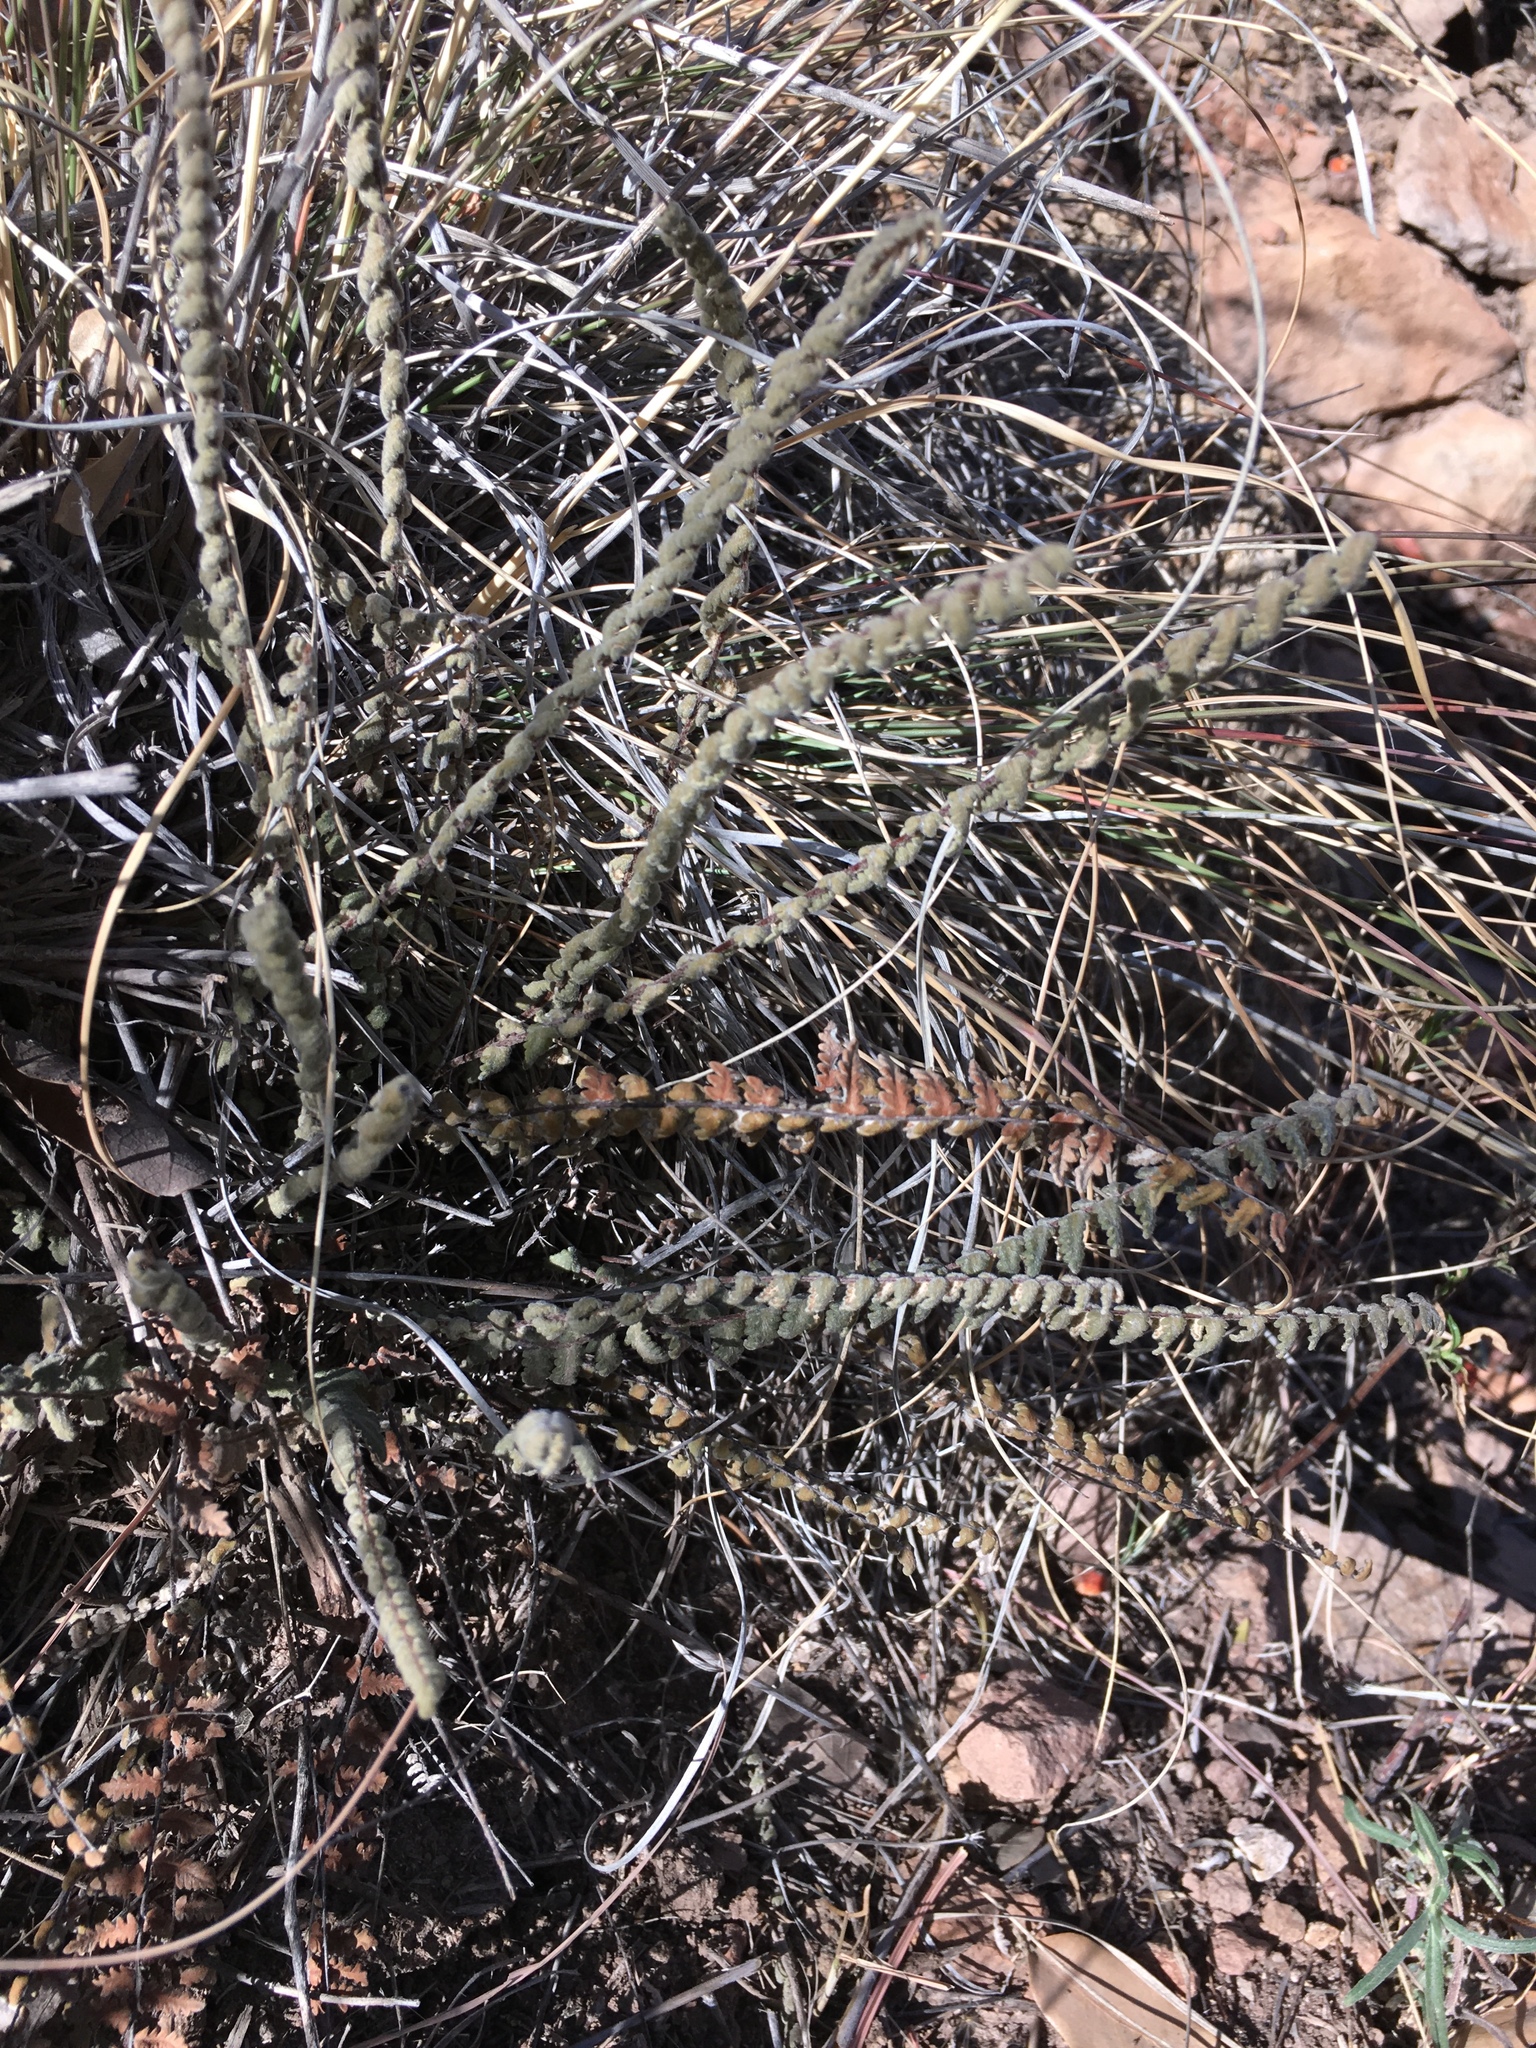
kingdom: Plantae
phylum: Tracheophyta
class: Polypodiopsida
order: Polypodiales
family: Pteridaceae
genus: Myriopteris
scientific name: Myriopteris aurea
